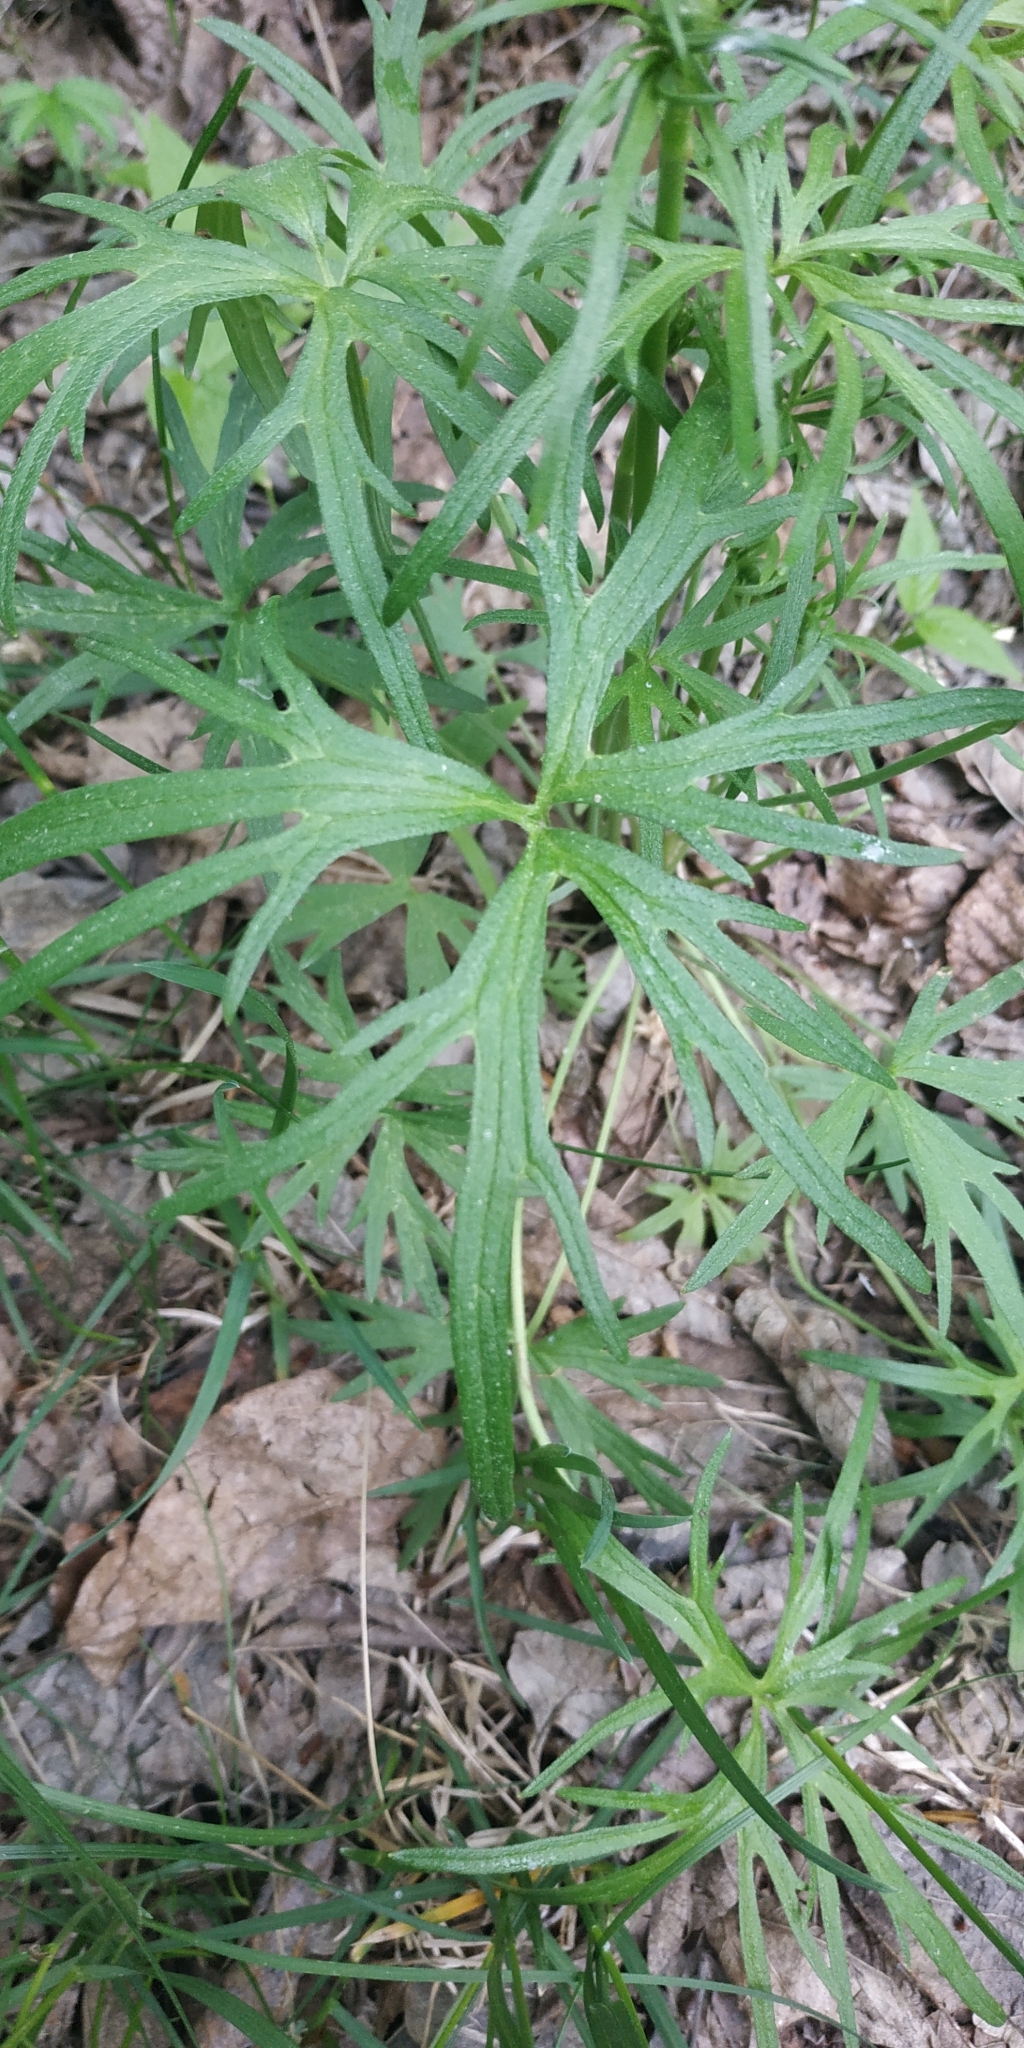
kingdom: Plantae
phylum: Tracheophyta
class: Magnoliopsida
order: Ranunculales
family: Ranunculaceae
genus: Ranunculus
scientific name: Ranunculus polyanthemos
